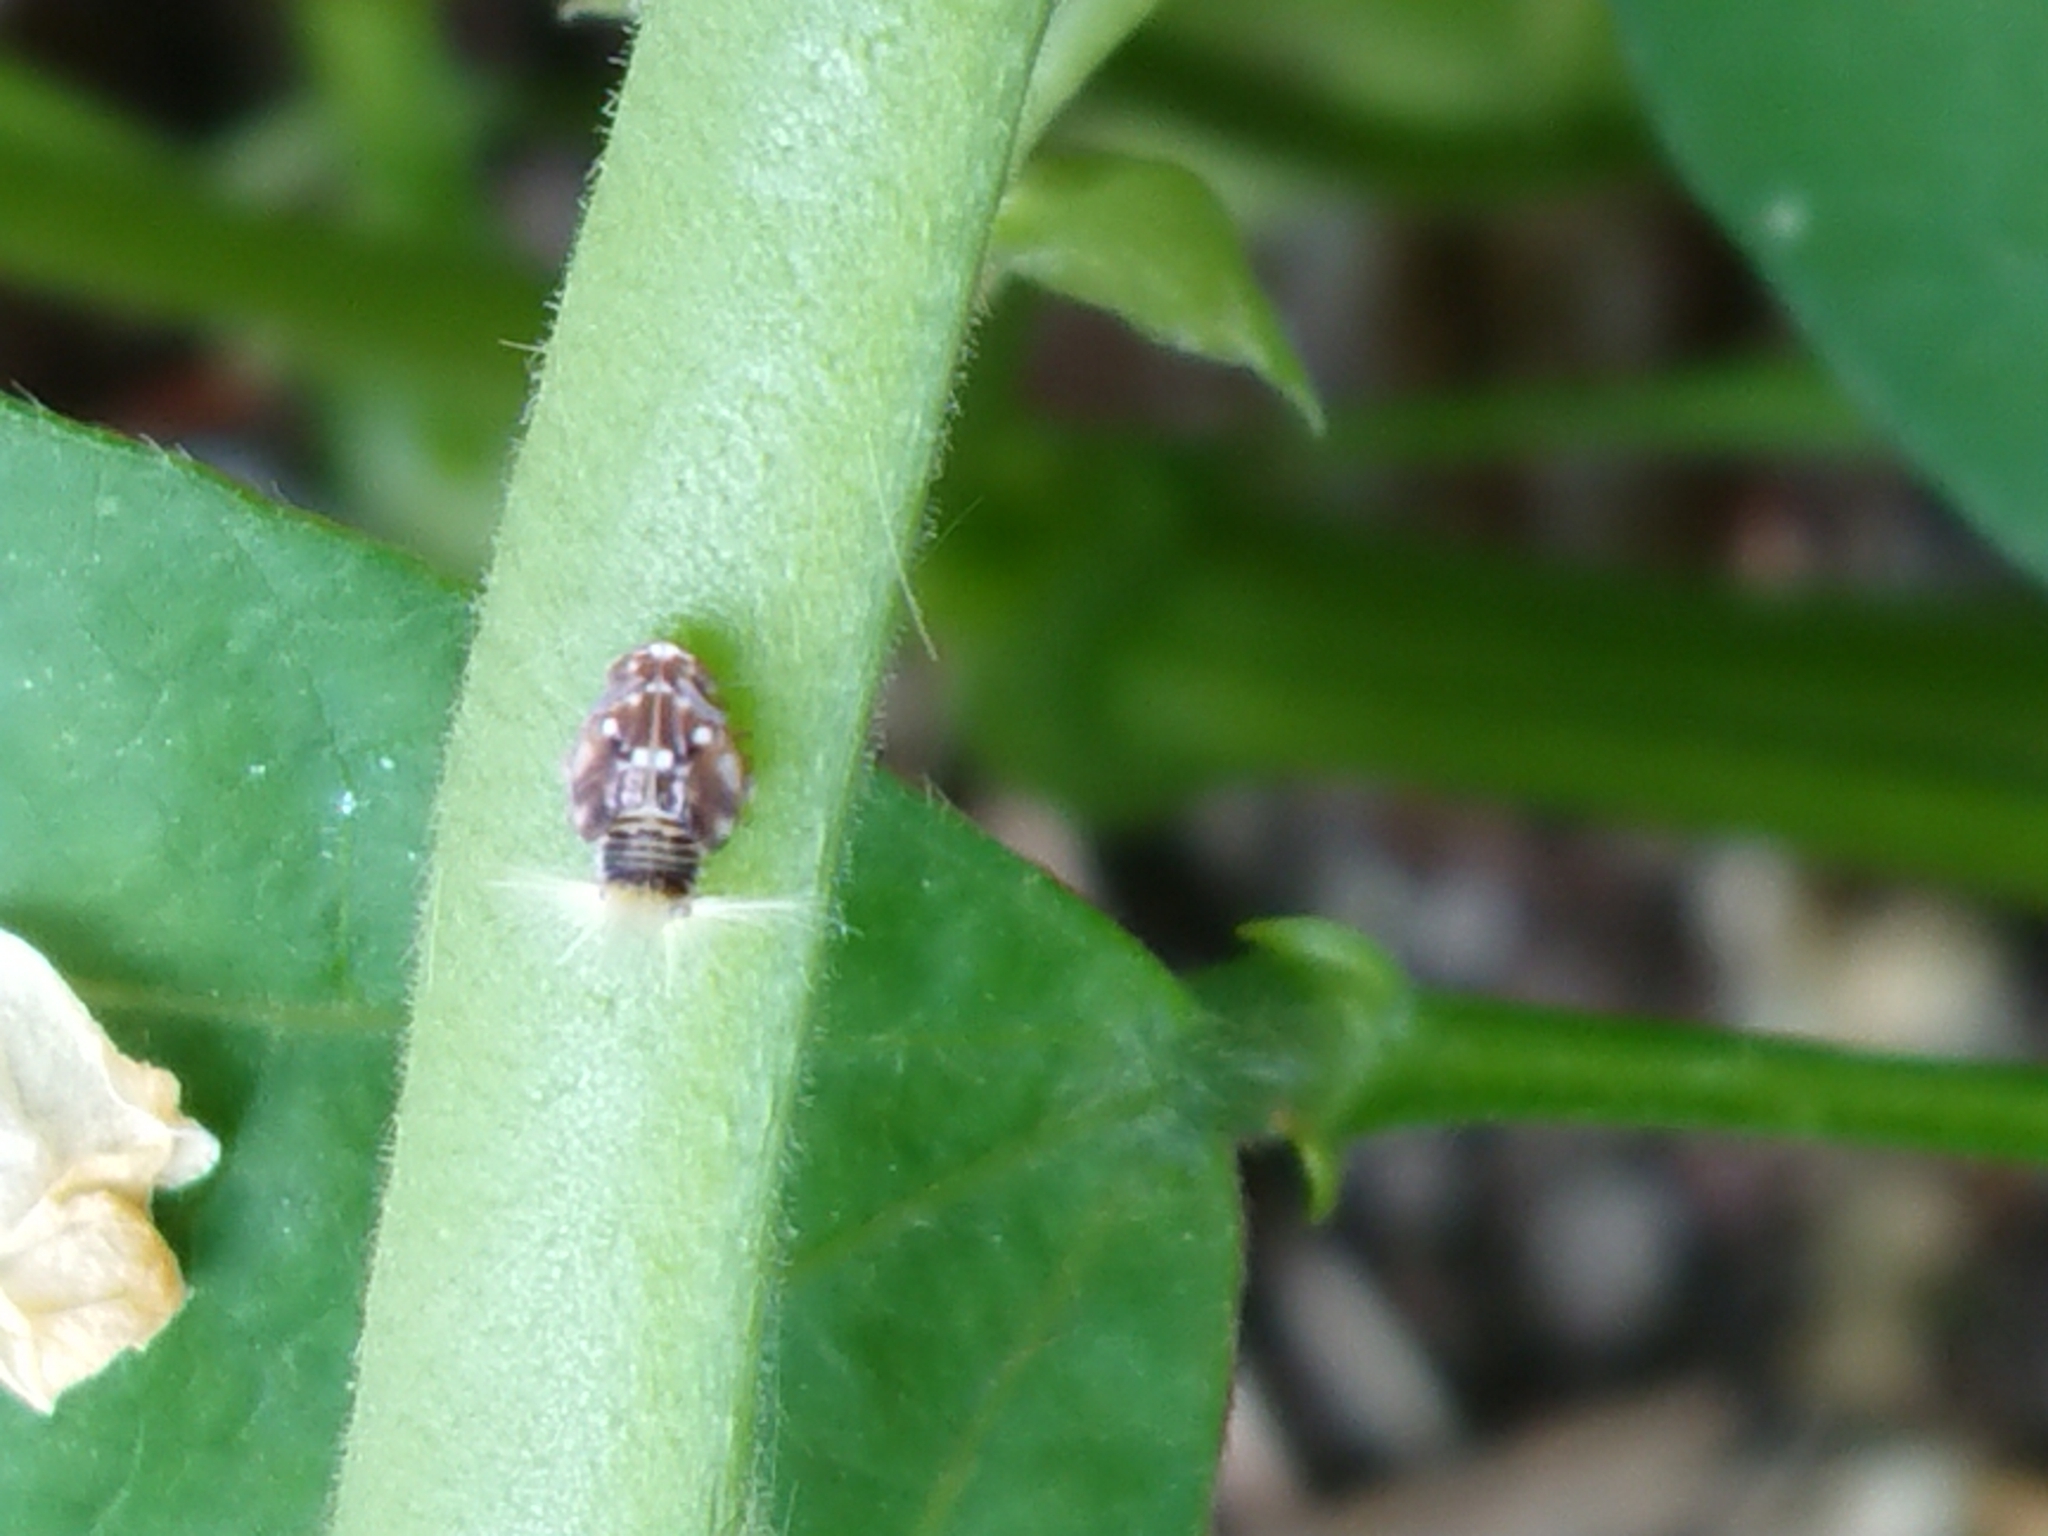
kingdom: Animalia
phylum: Arthropoda
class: Insecta
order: Hemiptera
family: Ricaniidae
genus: Scolypopa
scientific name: Scolypopa australis
